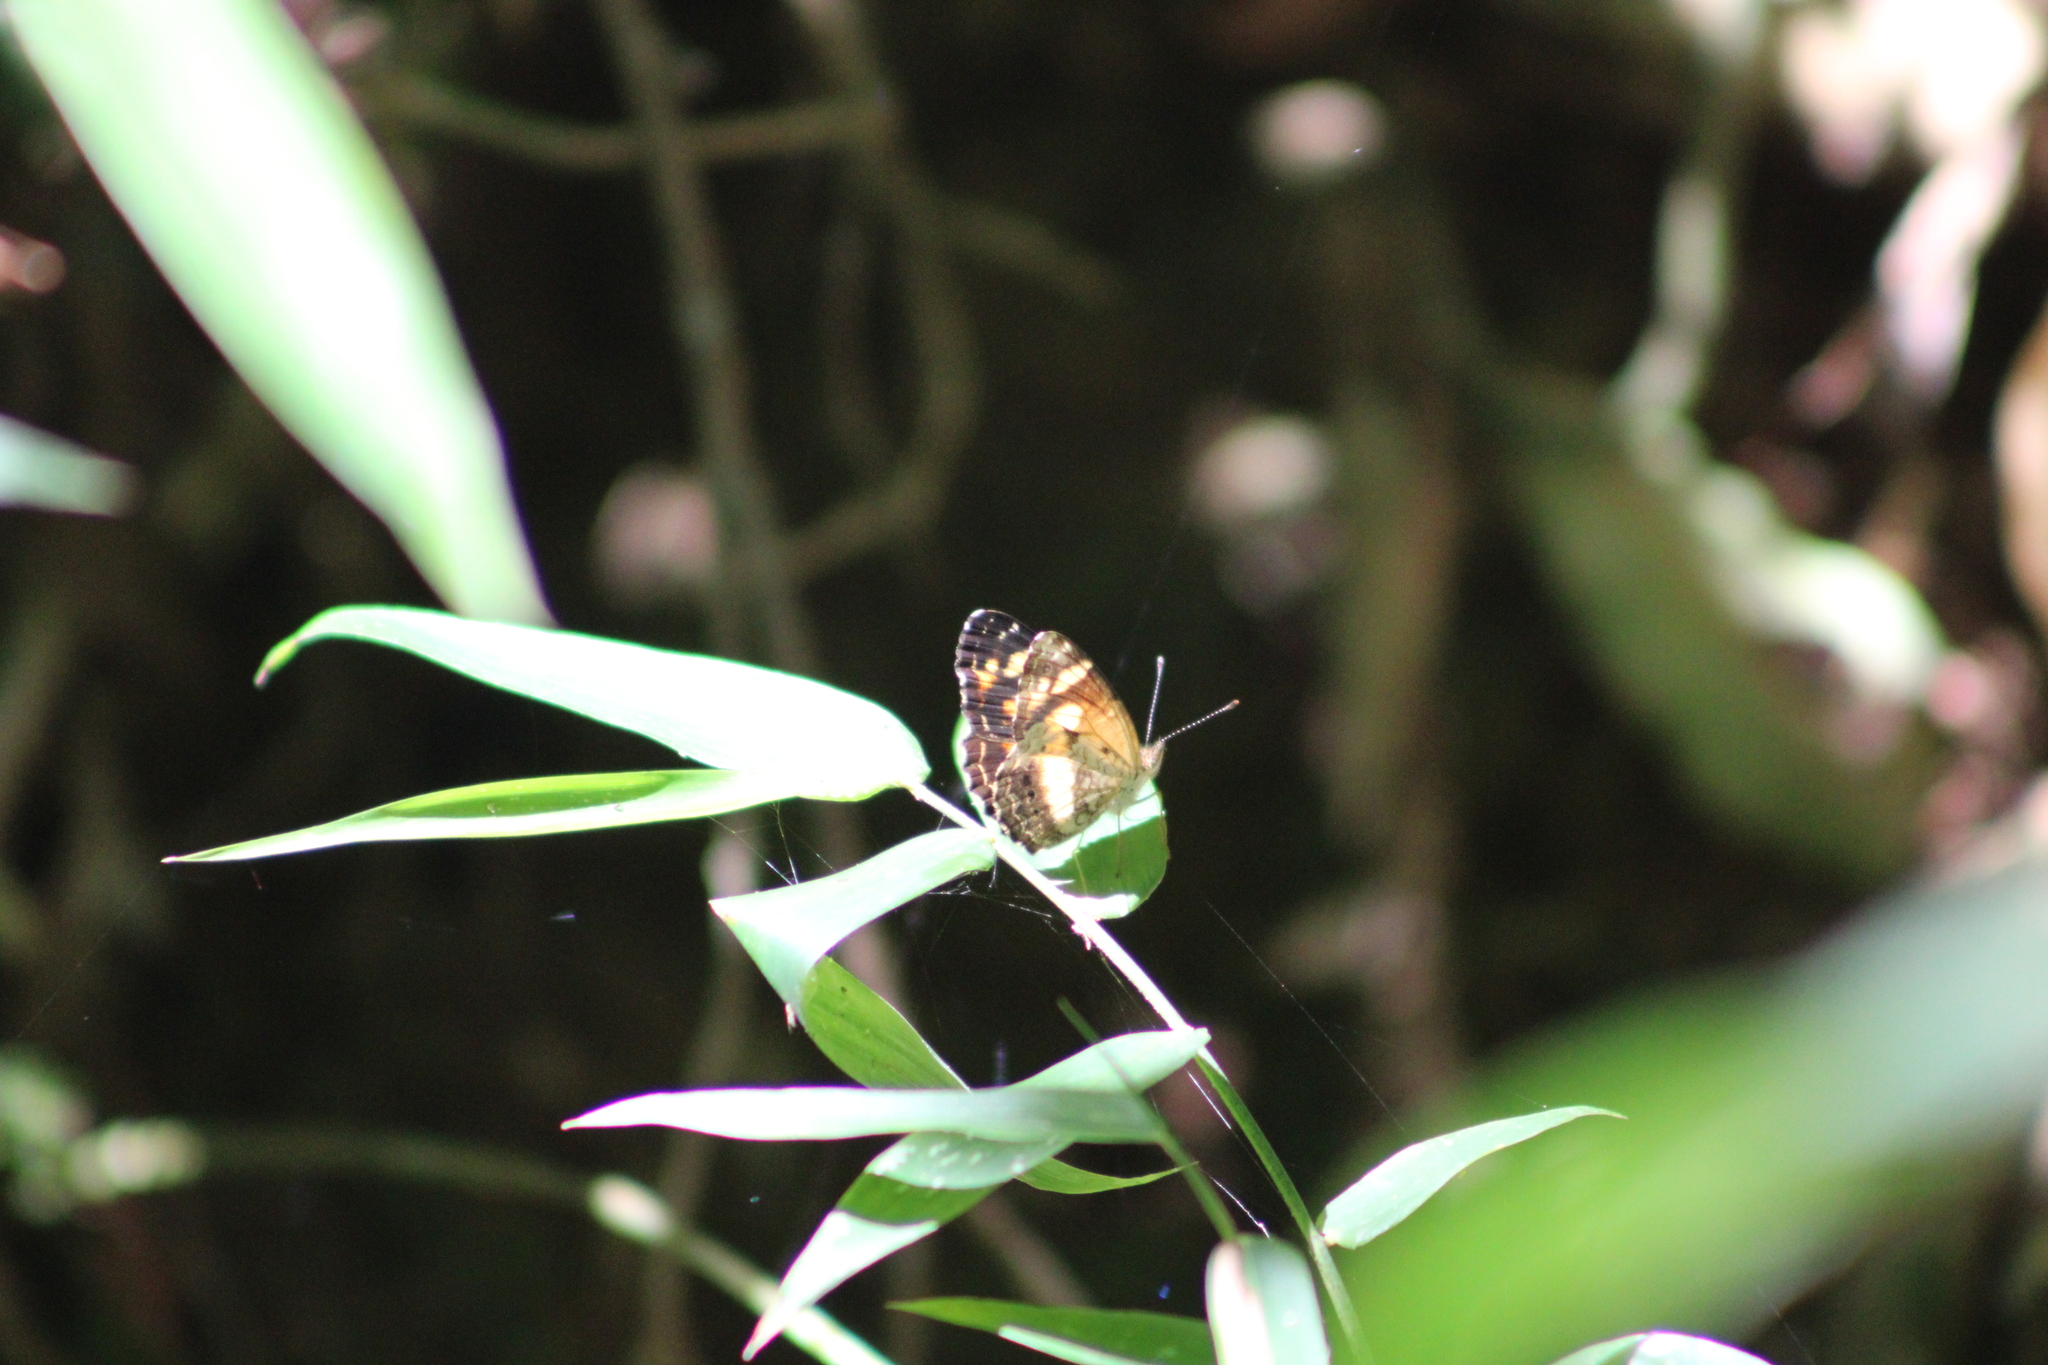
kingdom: Animalia
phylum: Arthropoda
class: Insecta
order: Lepidoptera
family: Nymphalidae
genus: Ortilia
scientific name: Ortilia orthia
